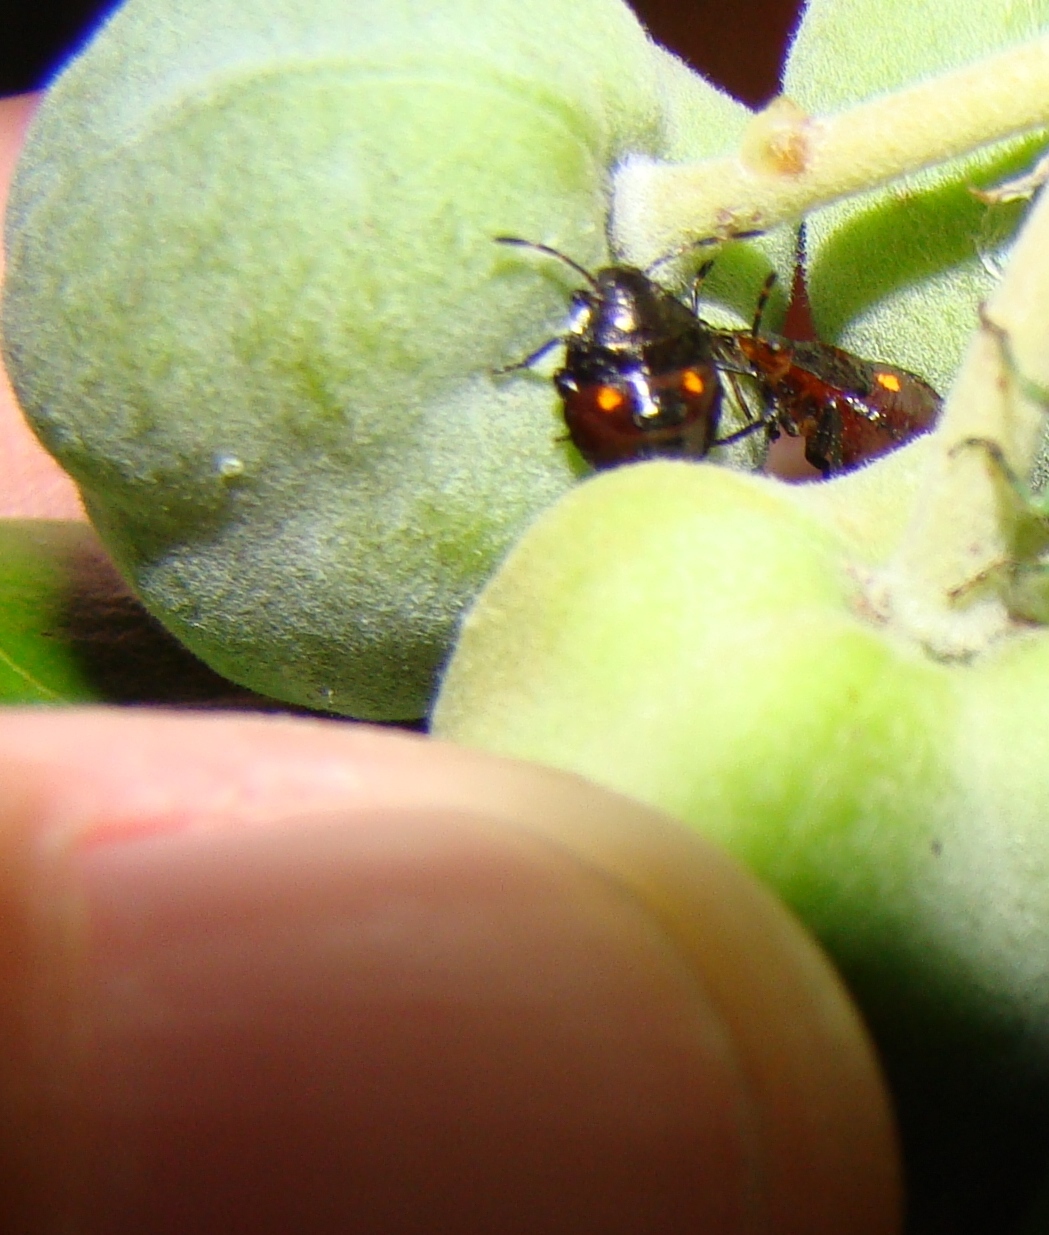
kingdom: Animalia
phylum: Arthropoda
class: Insecta
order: Hemiptera
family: Pentatomidae
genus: Monteithiella
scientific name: Monteithiella
